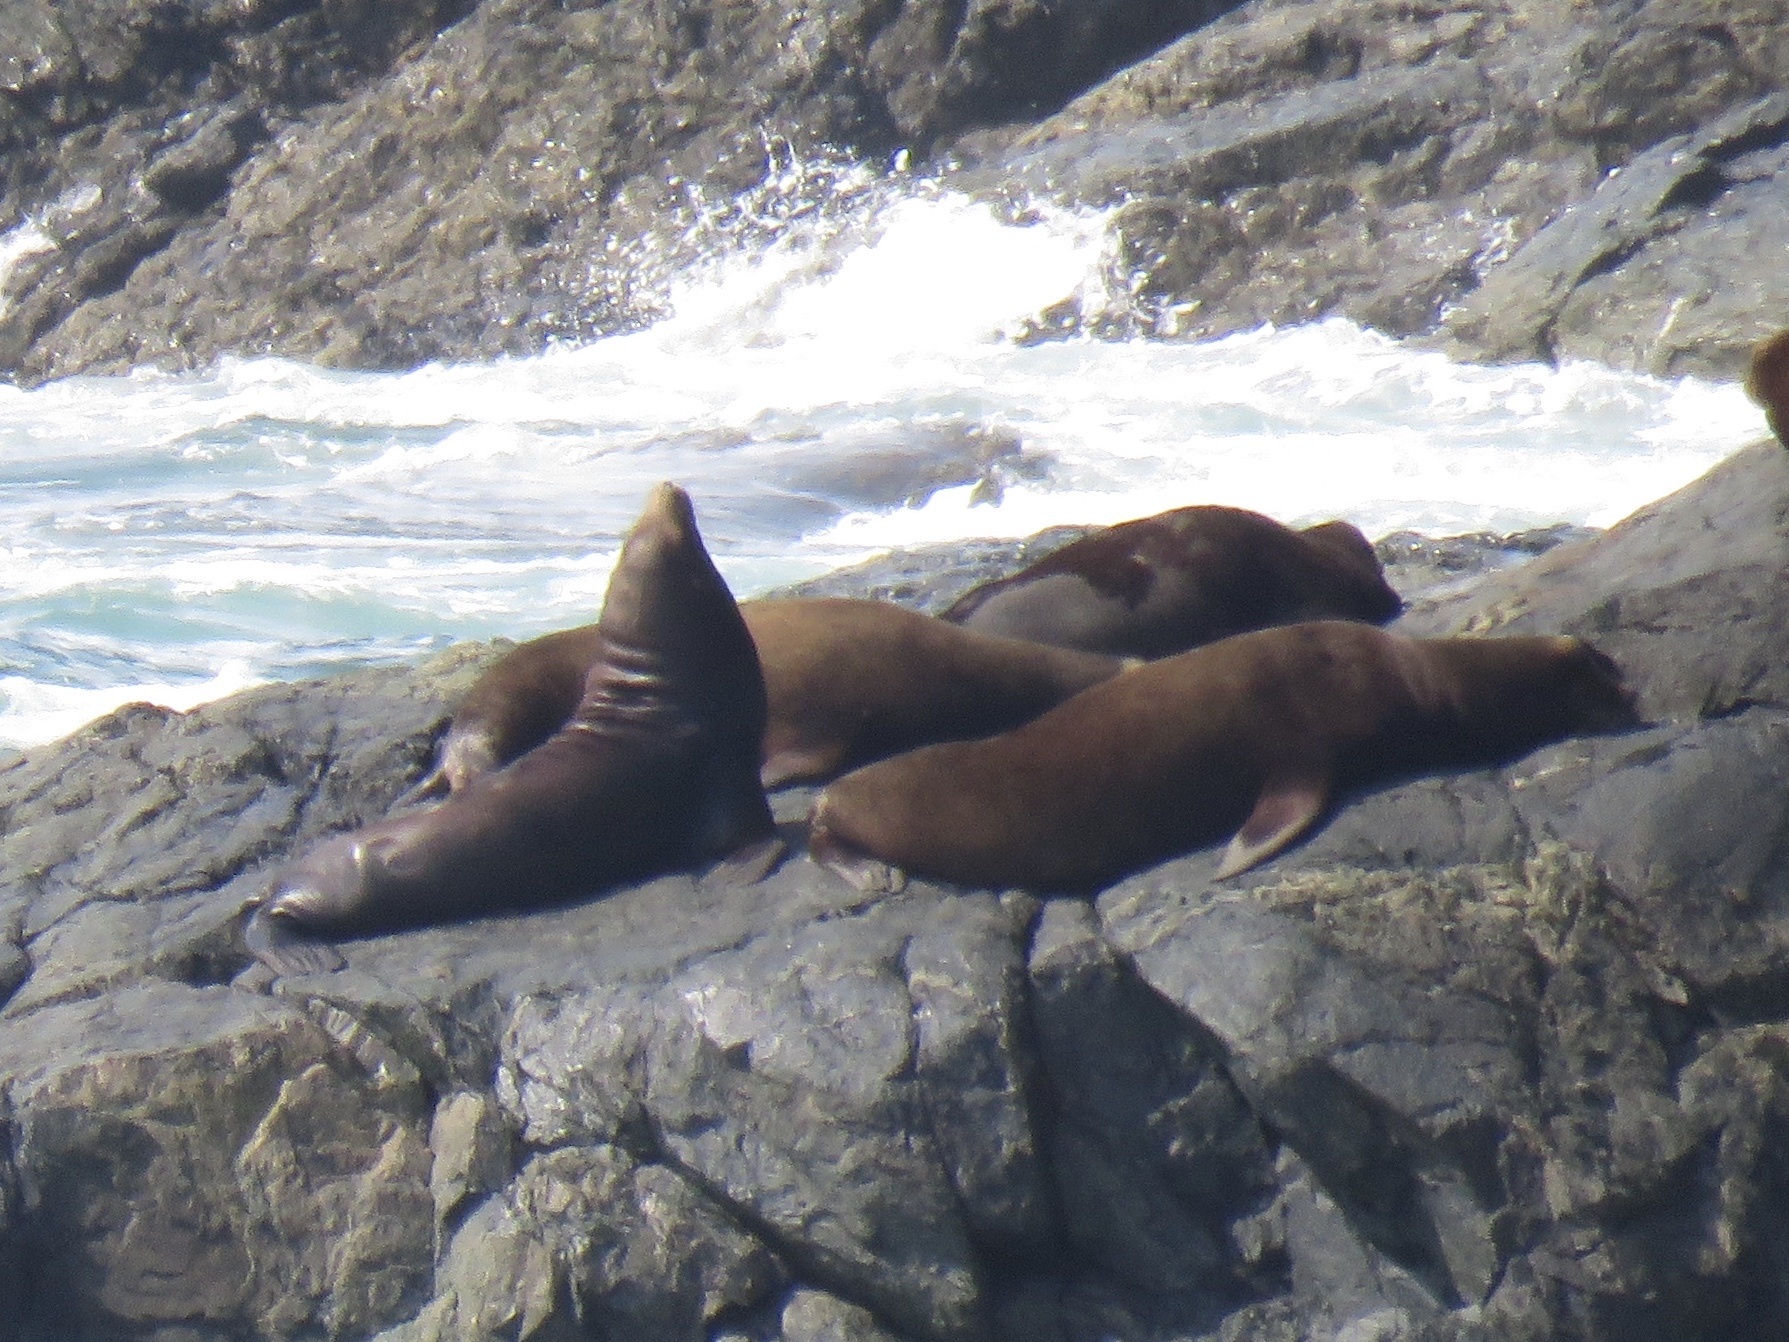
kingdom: Animalia
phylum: Chordata
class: Mammalia
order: Carnivora
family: Otariidae
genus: Zalophus
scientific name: Zalophus californianus
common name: California sea lion
